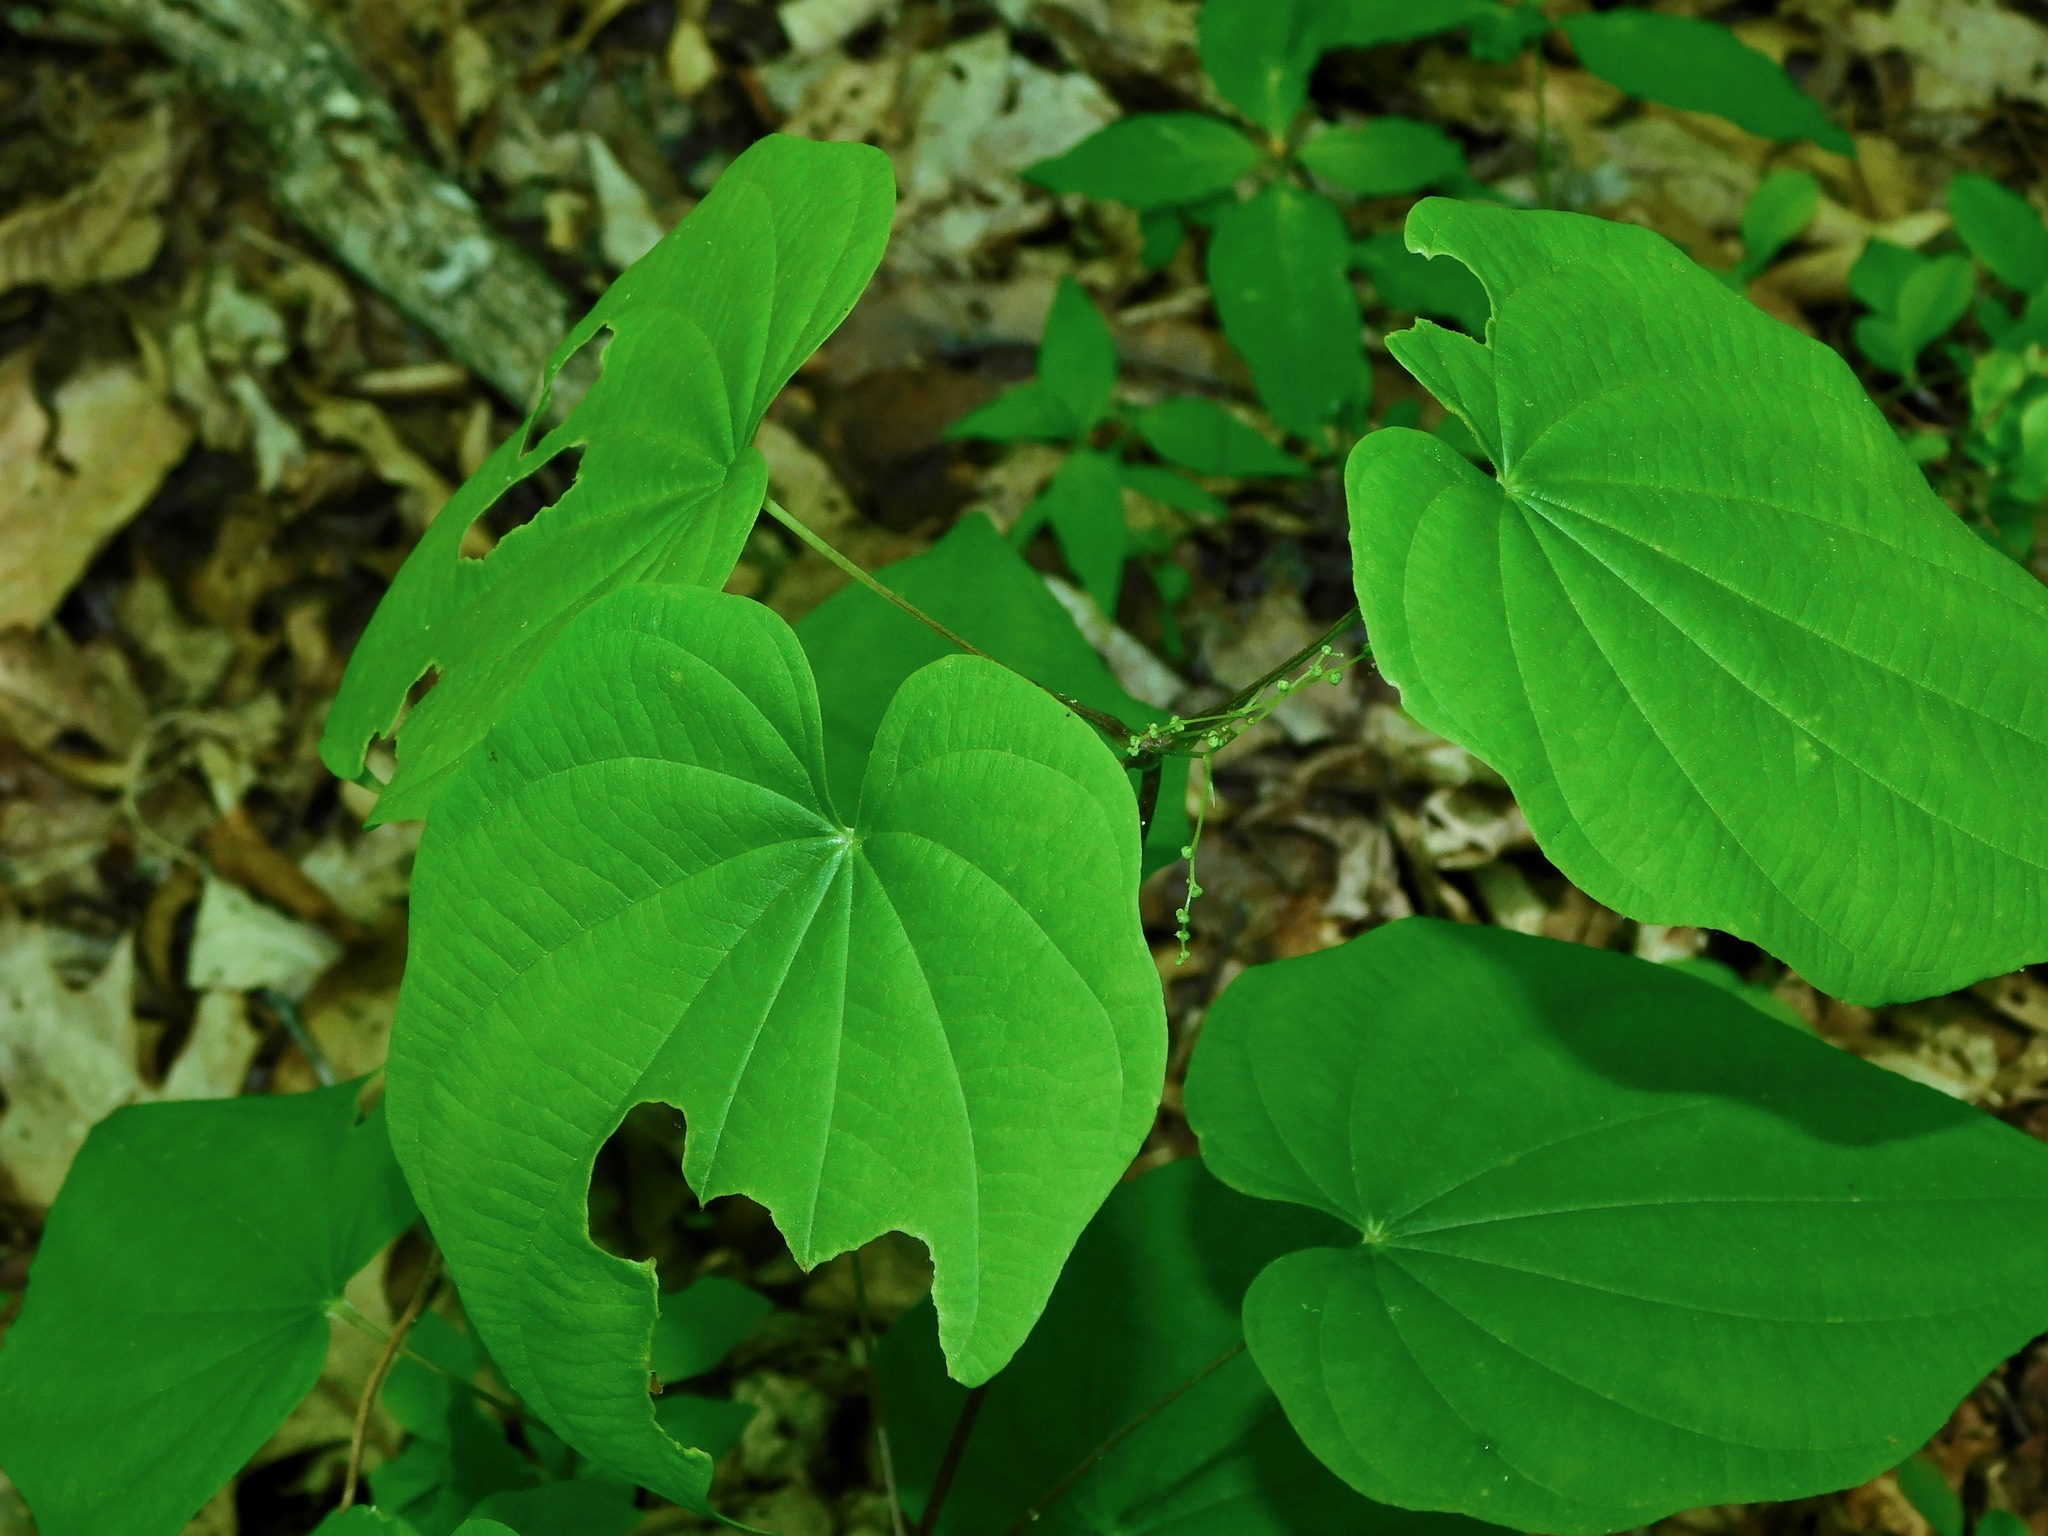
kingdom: Plantae
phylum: Tracheophyta
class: Liliopsida
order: Dioscoreales
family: Dioscoreaceae
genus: Dioscorea
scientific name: Dioscorea quaternata
